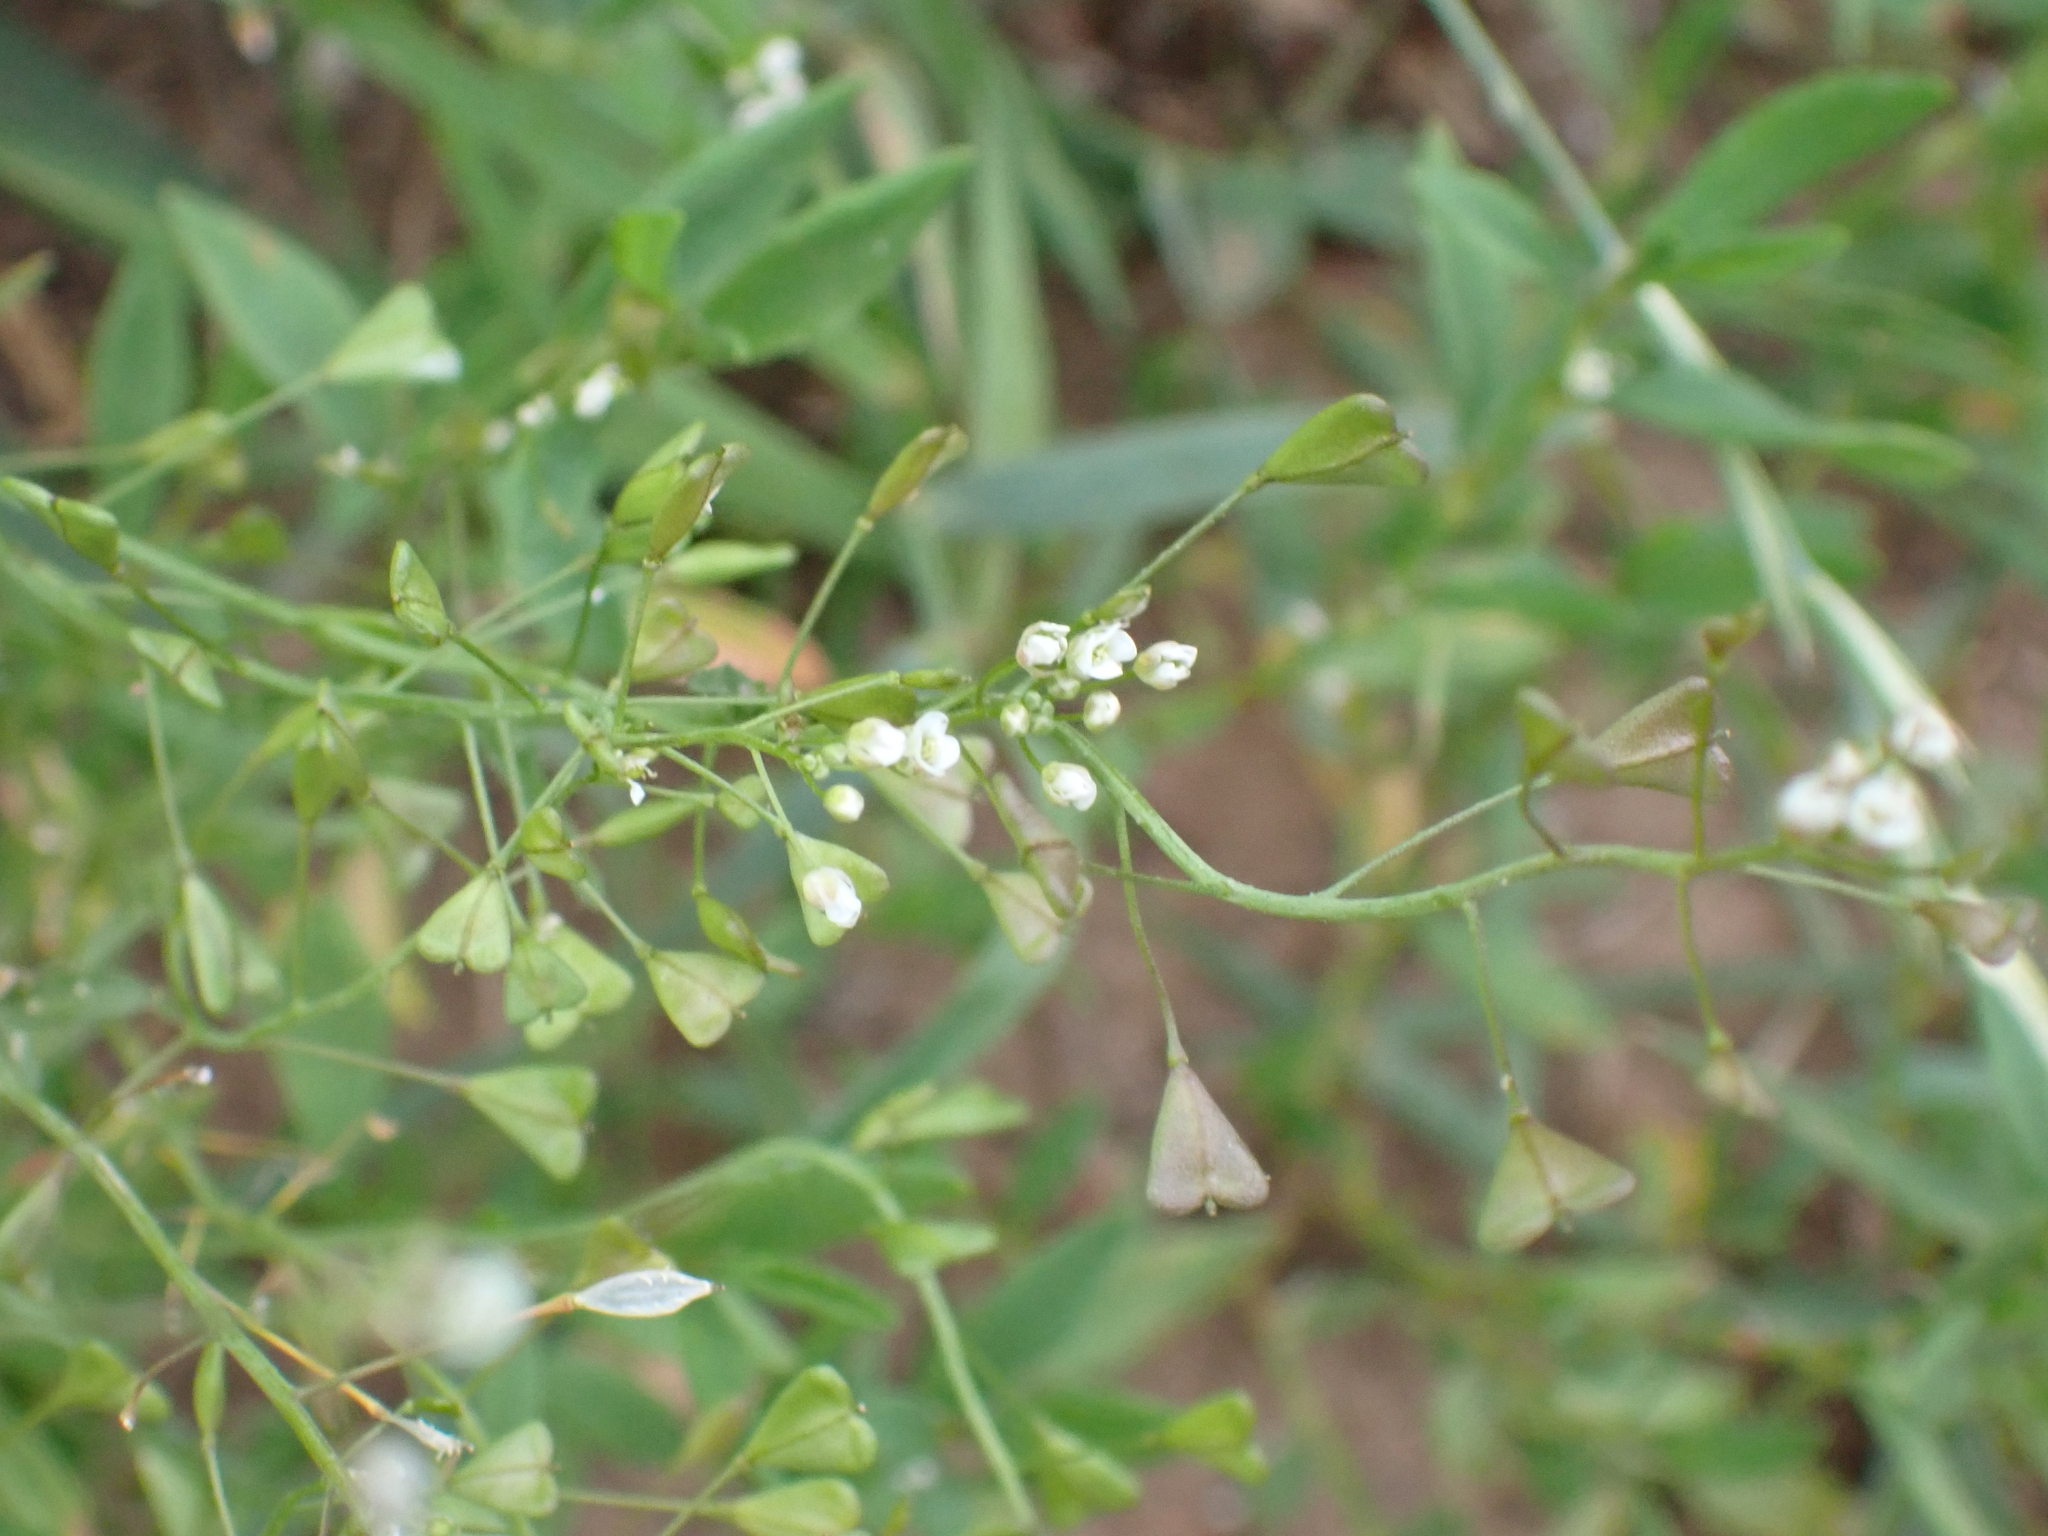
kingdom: Plantae
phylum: Tracheophyta
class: Magnoliopsida
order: Brassicales
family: Brassicaceae
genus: Capsella
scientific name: Capsella bursa-pastoris
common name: Shepherd's purse
